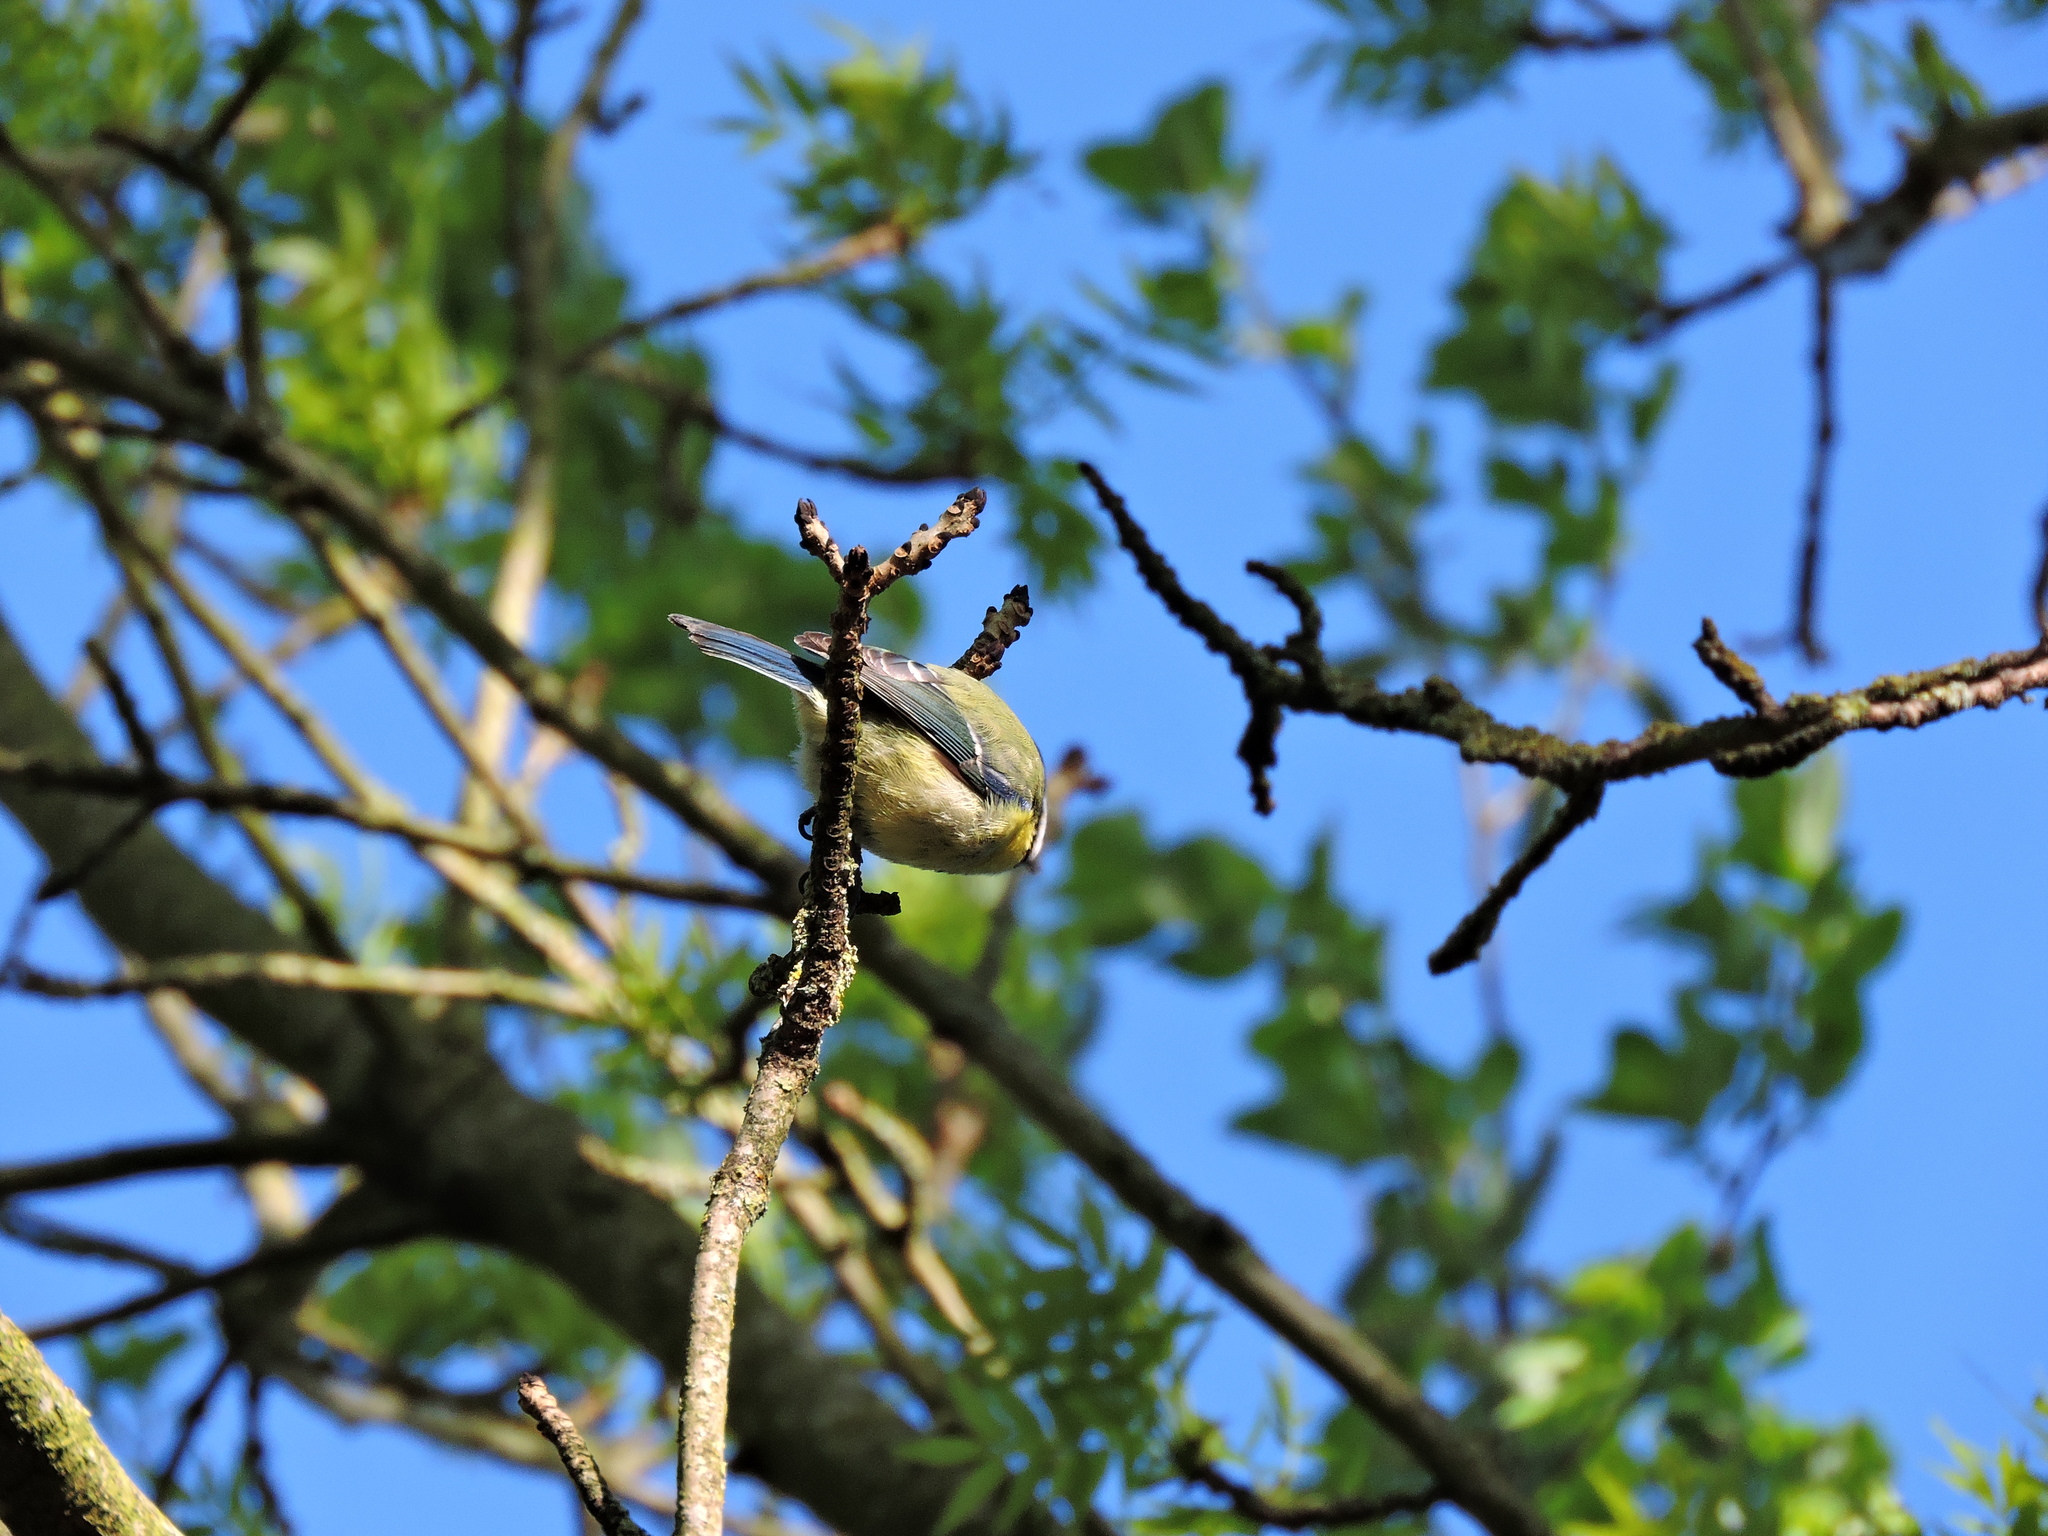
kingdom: Animalia
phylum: Chordata
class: Aves
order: Passeriformes
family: Paridae
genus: Cyanistes
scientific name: Cyanistes caeruleus
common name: Eurasian blue tit
